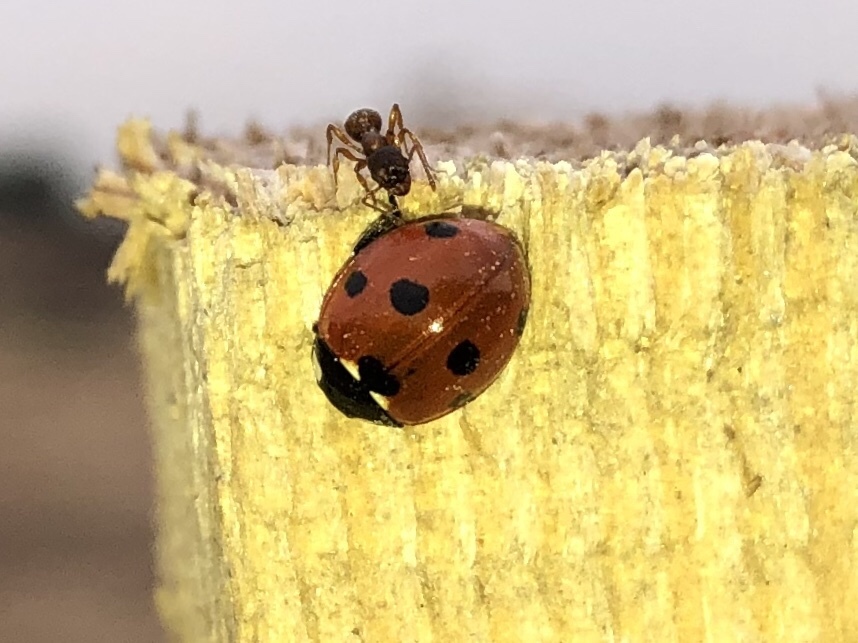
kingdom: Animalia
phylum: Arthropoda
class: Insecta
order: Coleoptera
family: Coccinellidae
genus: Coccinella
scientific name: Coccinella septempunctata
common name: Sevenspotted lady beetle
